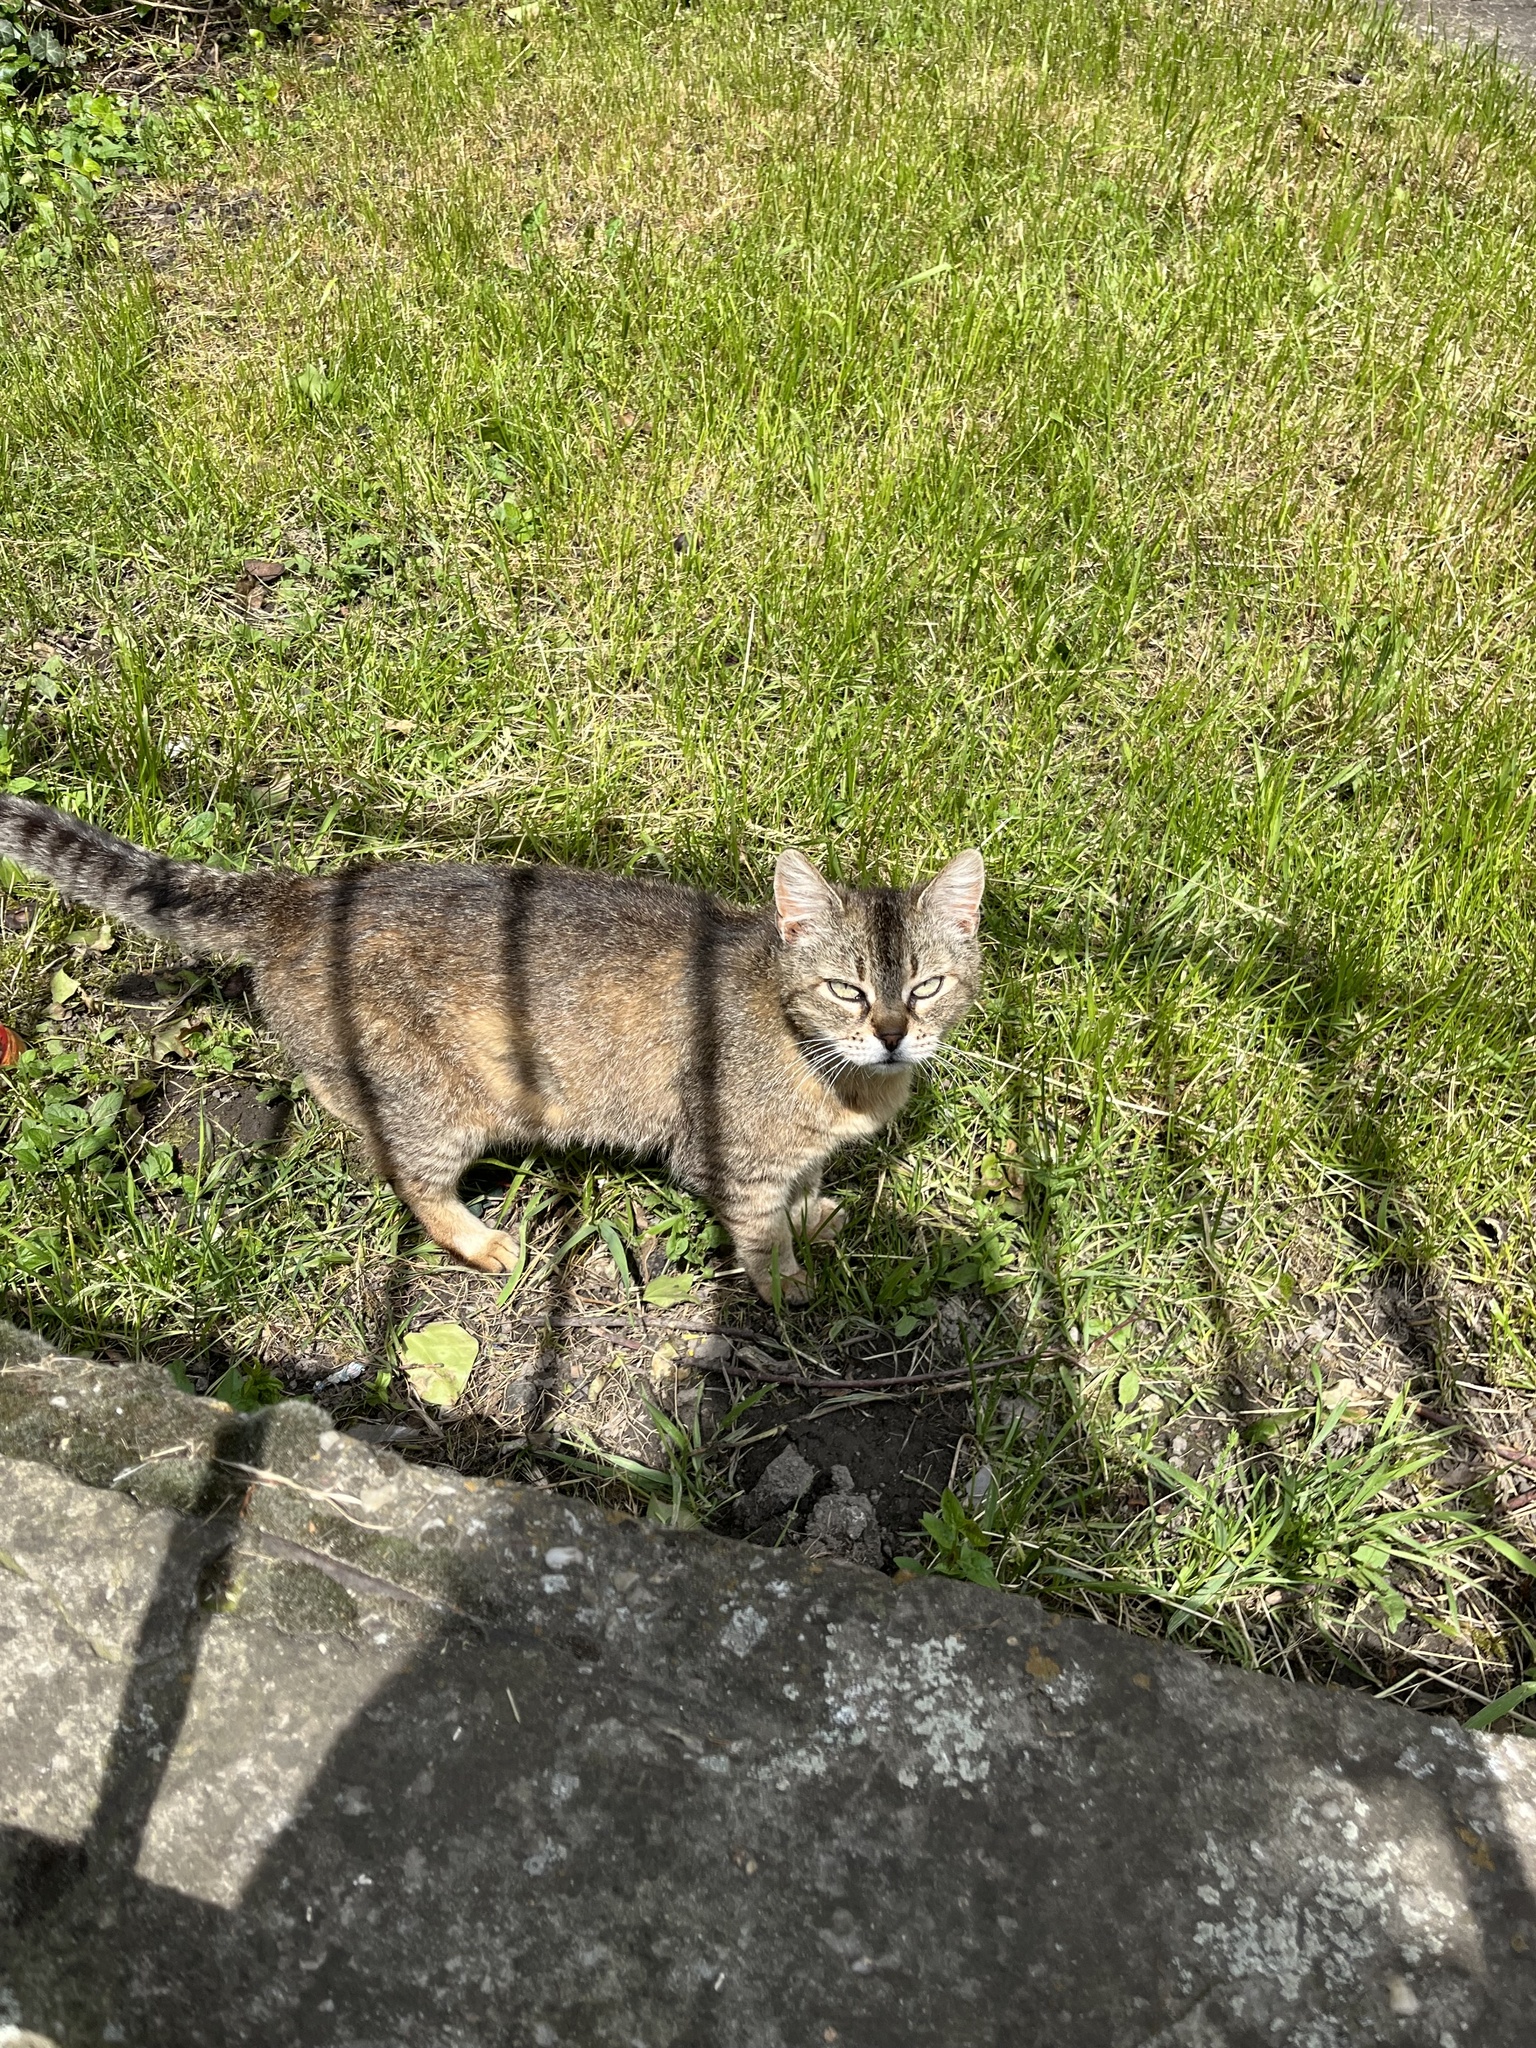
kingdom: Animalia
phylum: Chordata
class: Mammalia
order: Carnivora
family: Felidae
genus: Felis
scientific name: Felis catus
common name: Domestic cat
